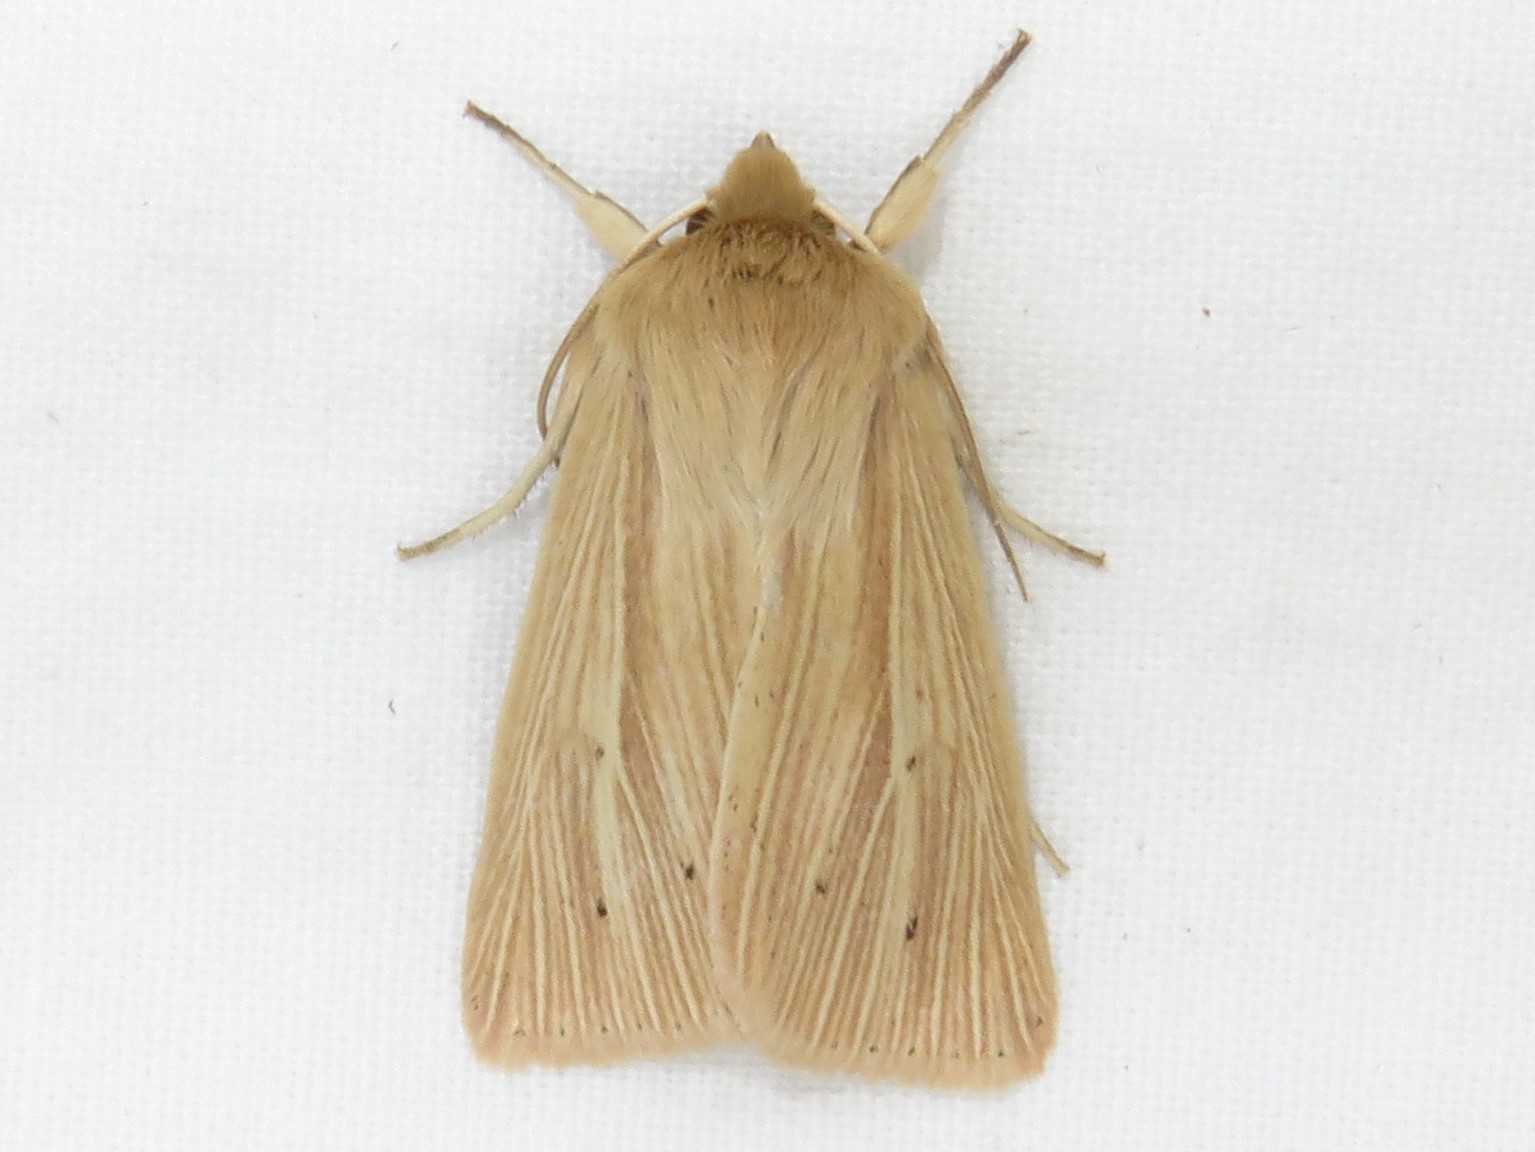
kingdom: Animalia
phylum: Arthropoda
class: Insecta
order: Lepidoptera
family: Noctuidae
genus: Mythimna
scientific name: Mythimna oxygala
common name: Lesser wainscot
